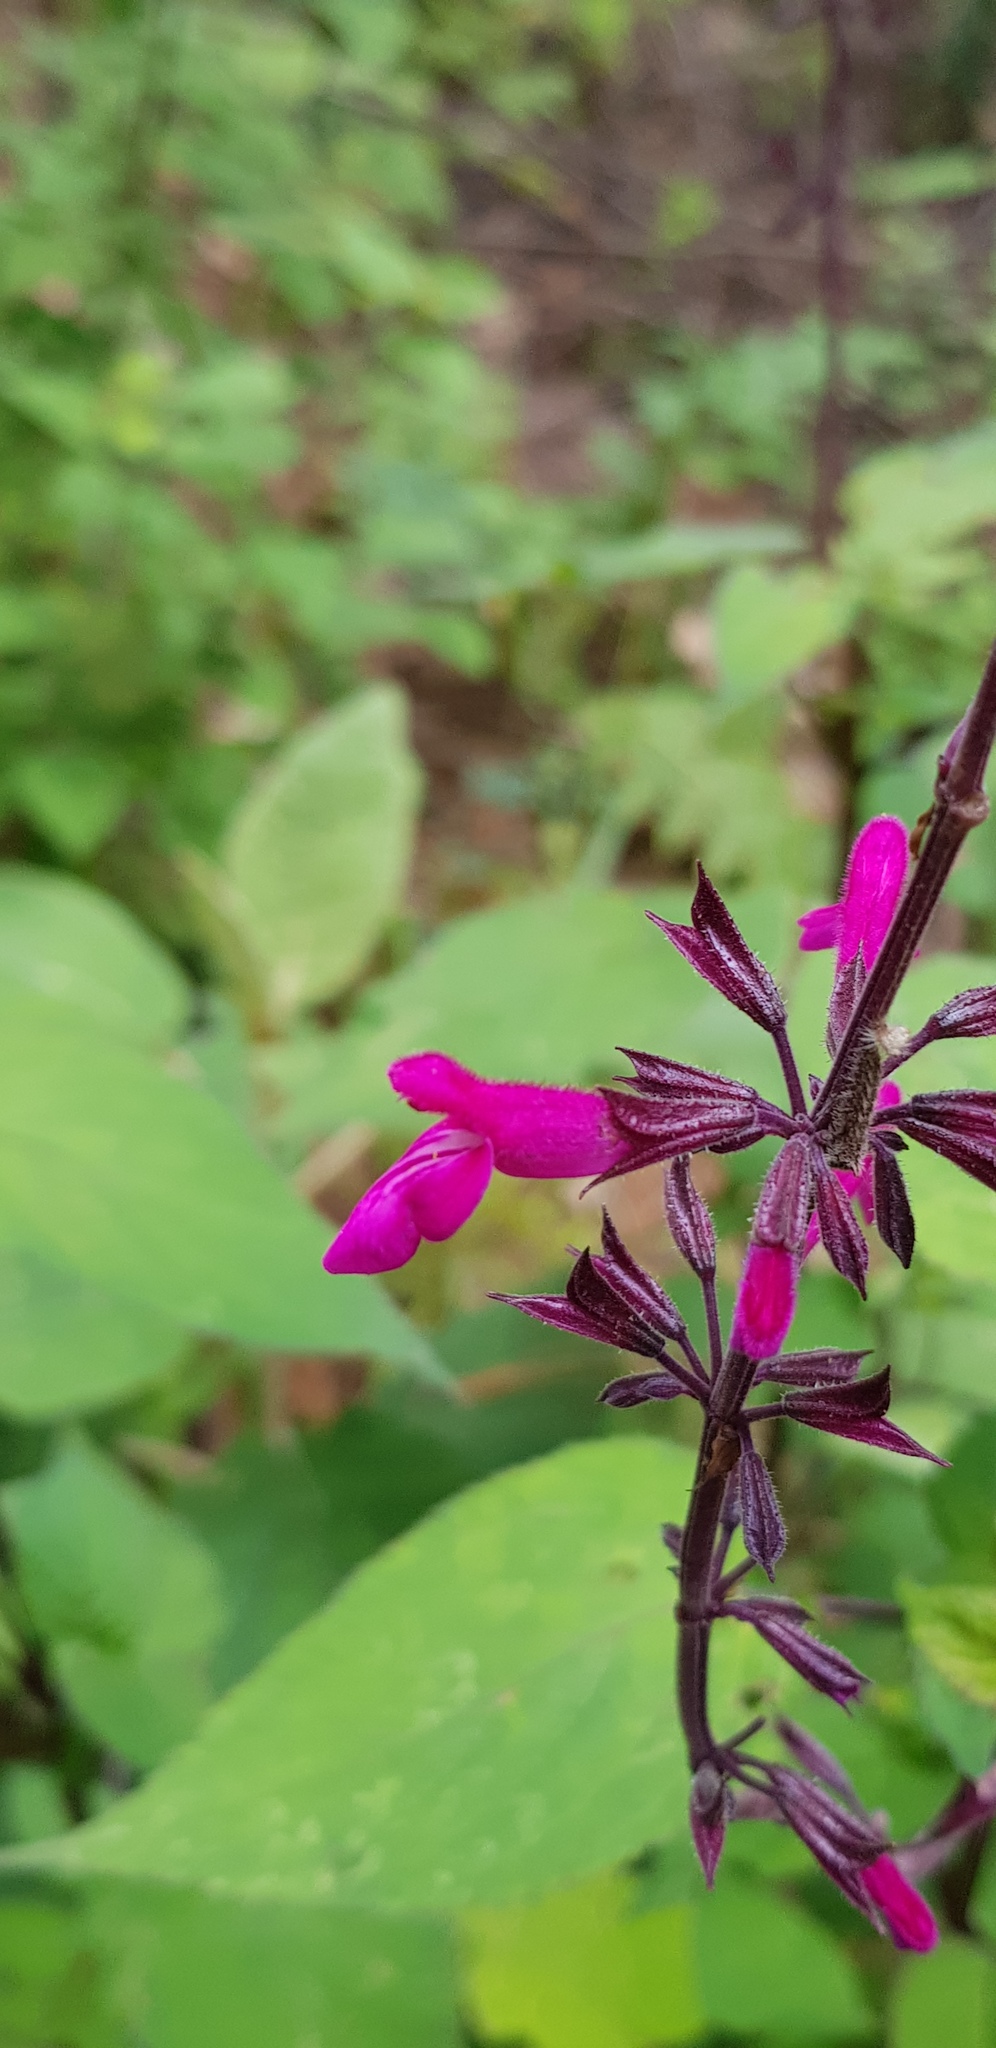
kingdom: Plantae
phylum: Tracheophyta
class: Magnoliopsida
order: Lamiales
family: Lamiaceae
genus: Salvia
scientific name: Salvia carnea
